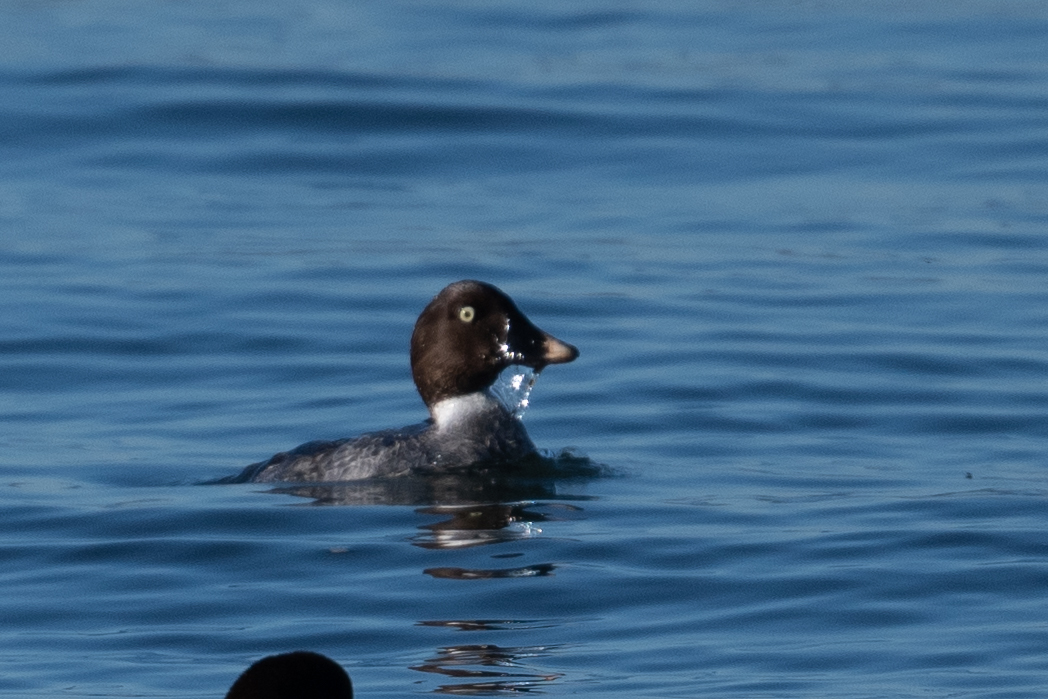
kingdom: Animalia
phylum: Chordata
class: Aves
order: Anseriformes
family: Anatidae
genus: Bucephala
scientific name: Bucephala clangula
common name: Common goldeneye
